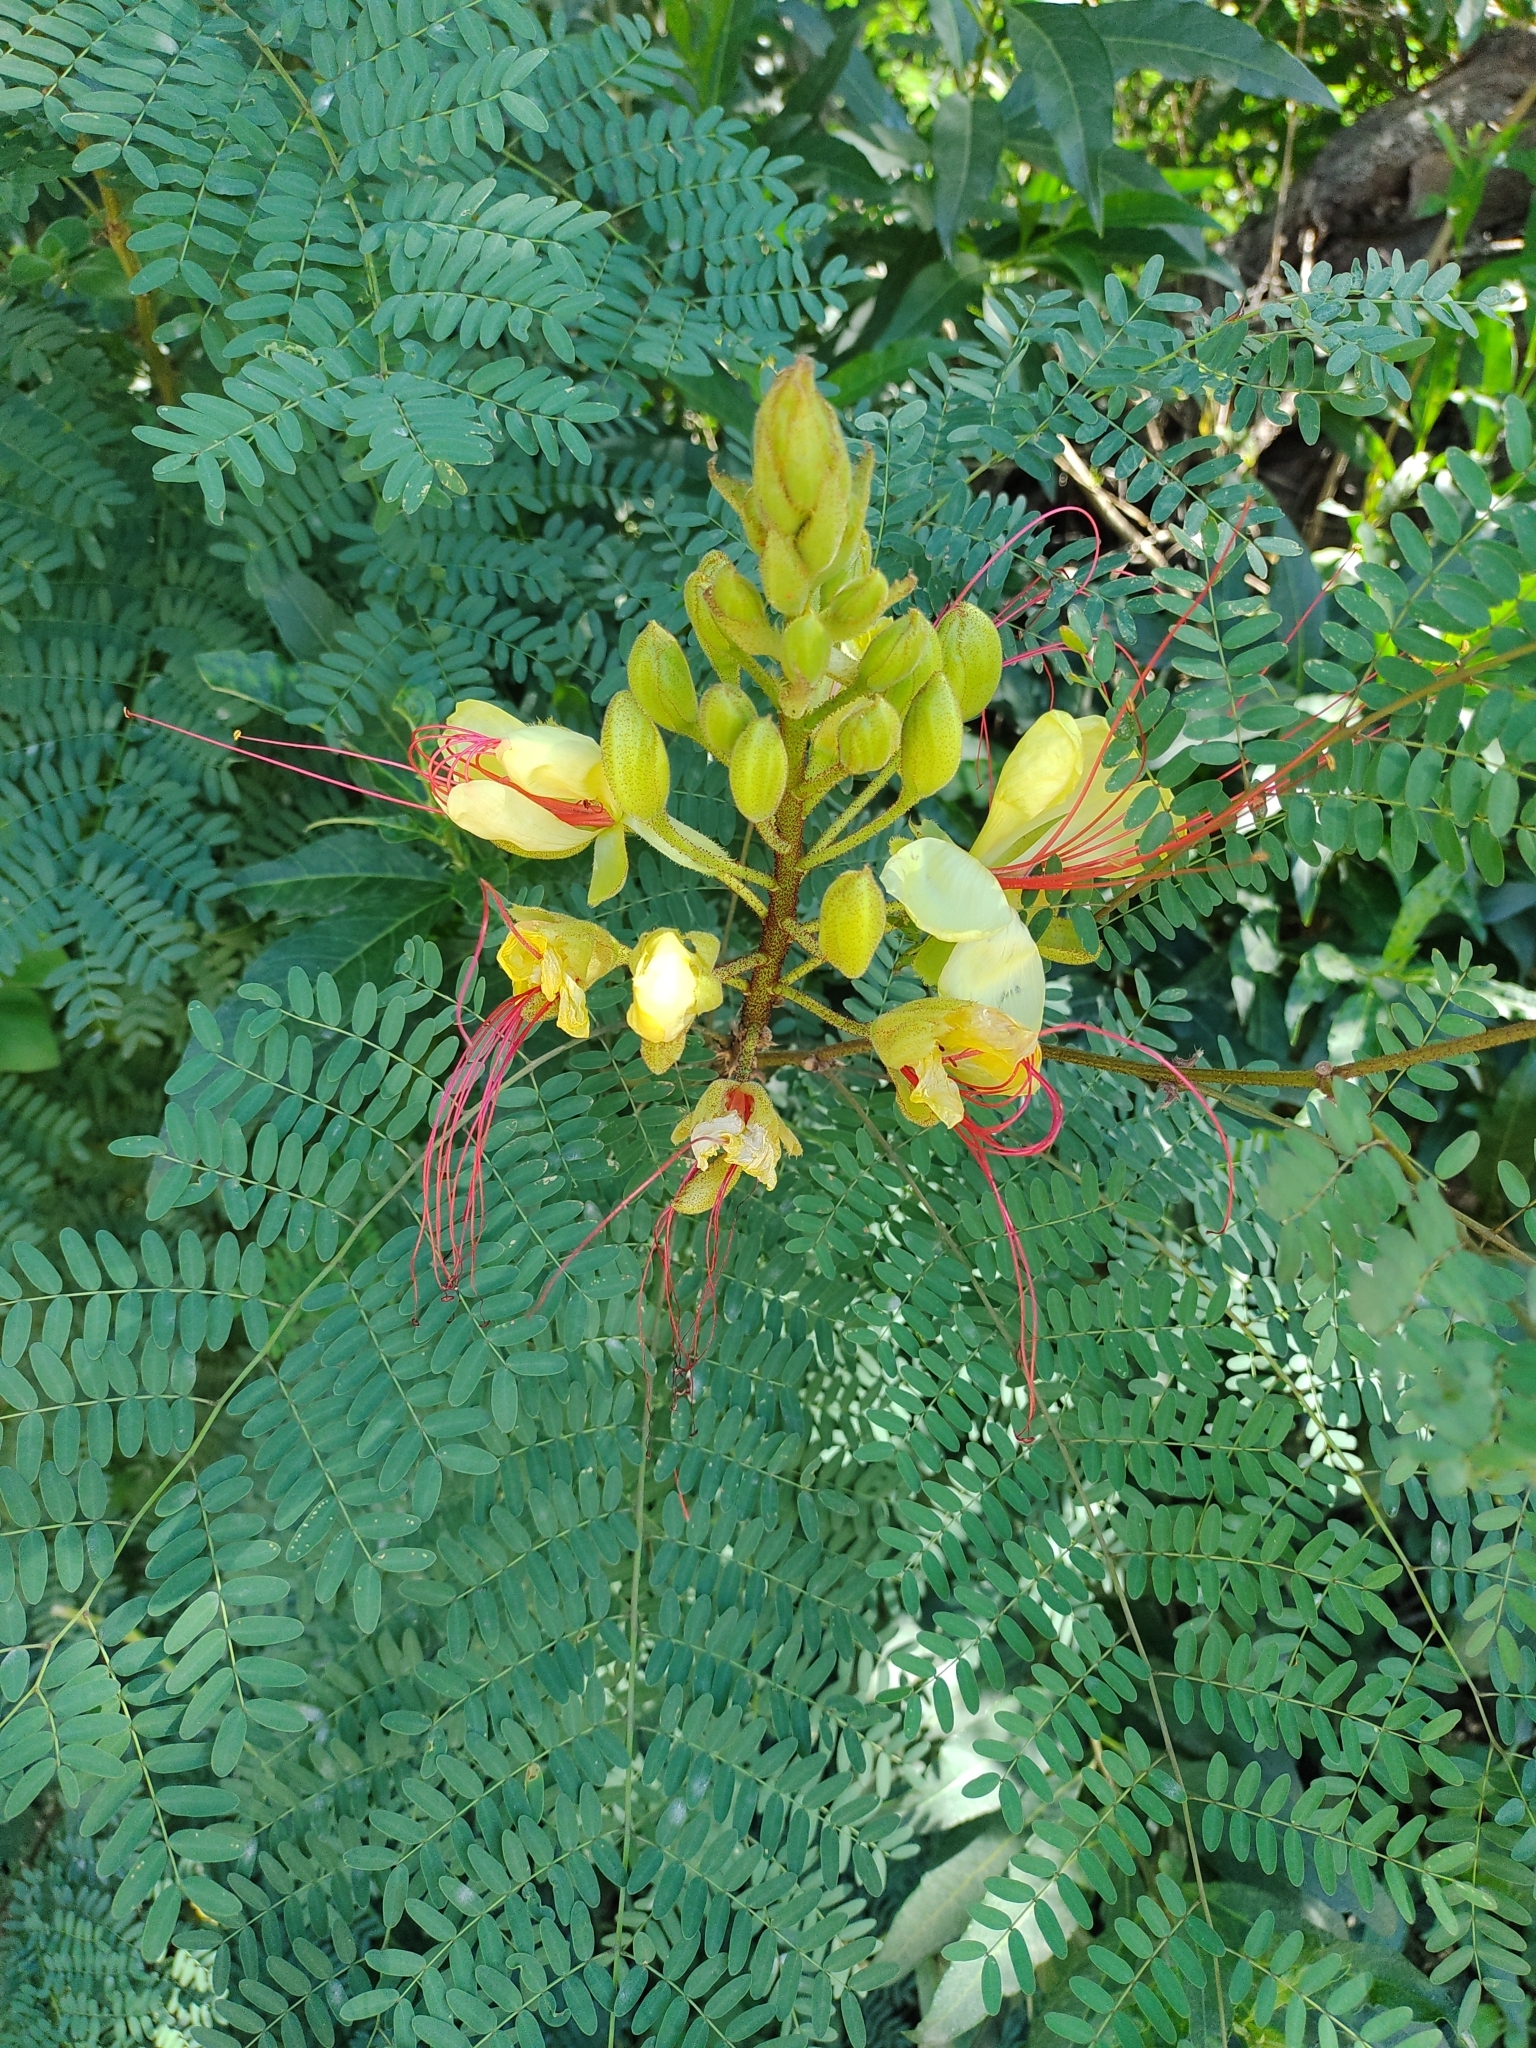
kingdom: Plantae
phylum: Tracheophyta
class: Magnoliopsida
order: Fabales
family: Fabaceae
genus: Erythrostemon
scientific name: Erythrostemon gilliesii
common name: Bird-of-paradise shrub
